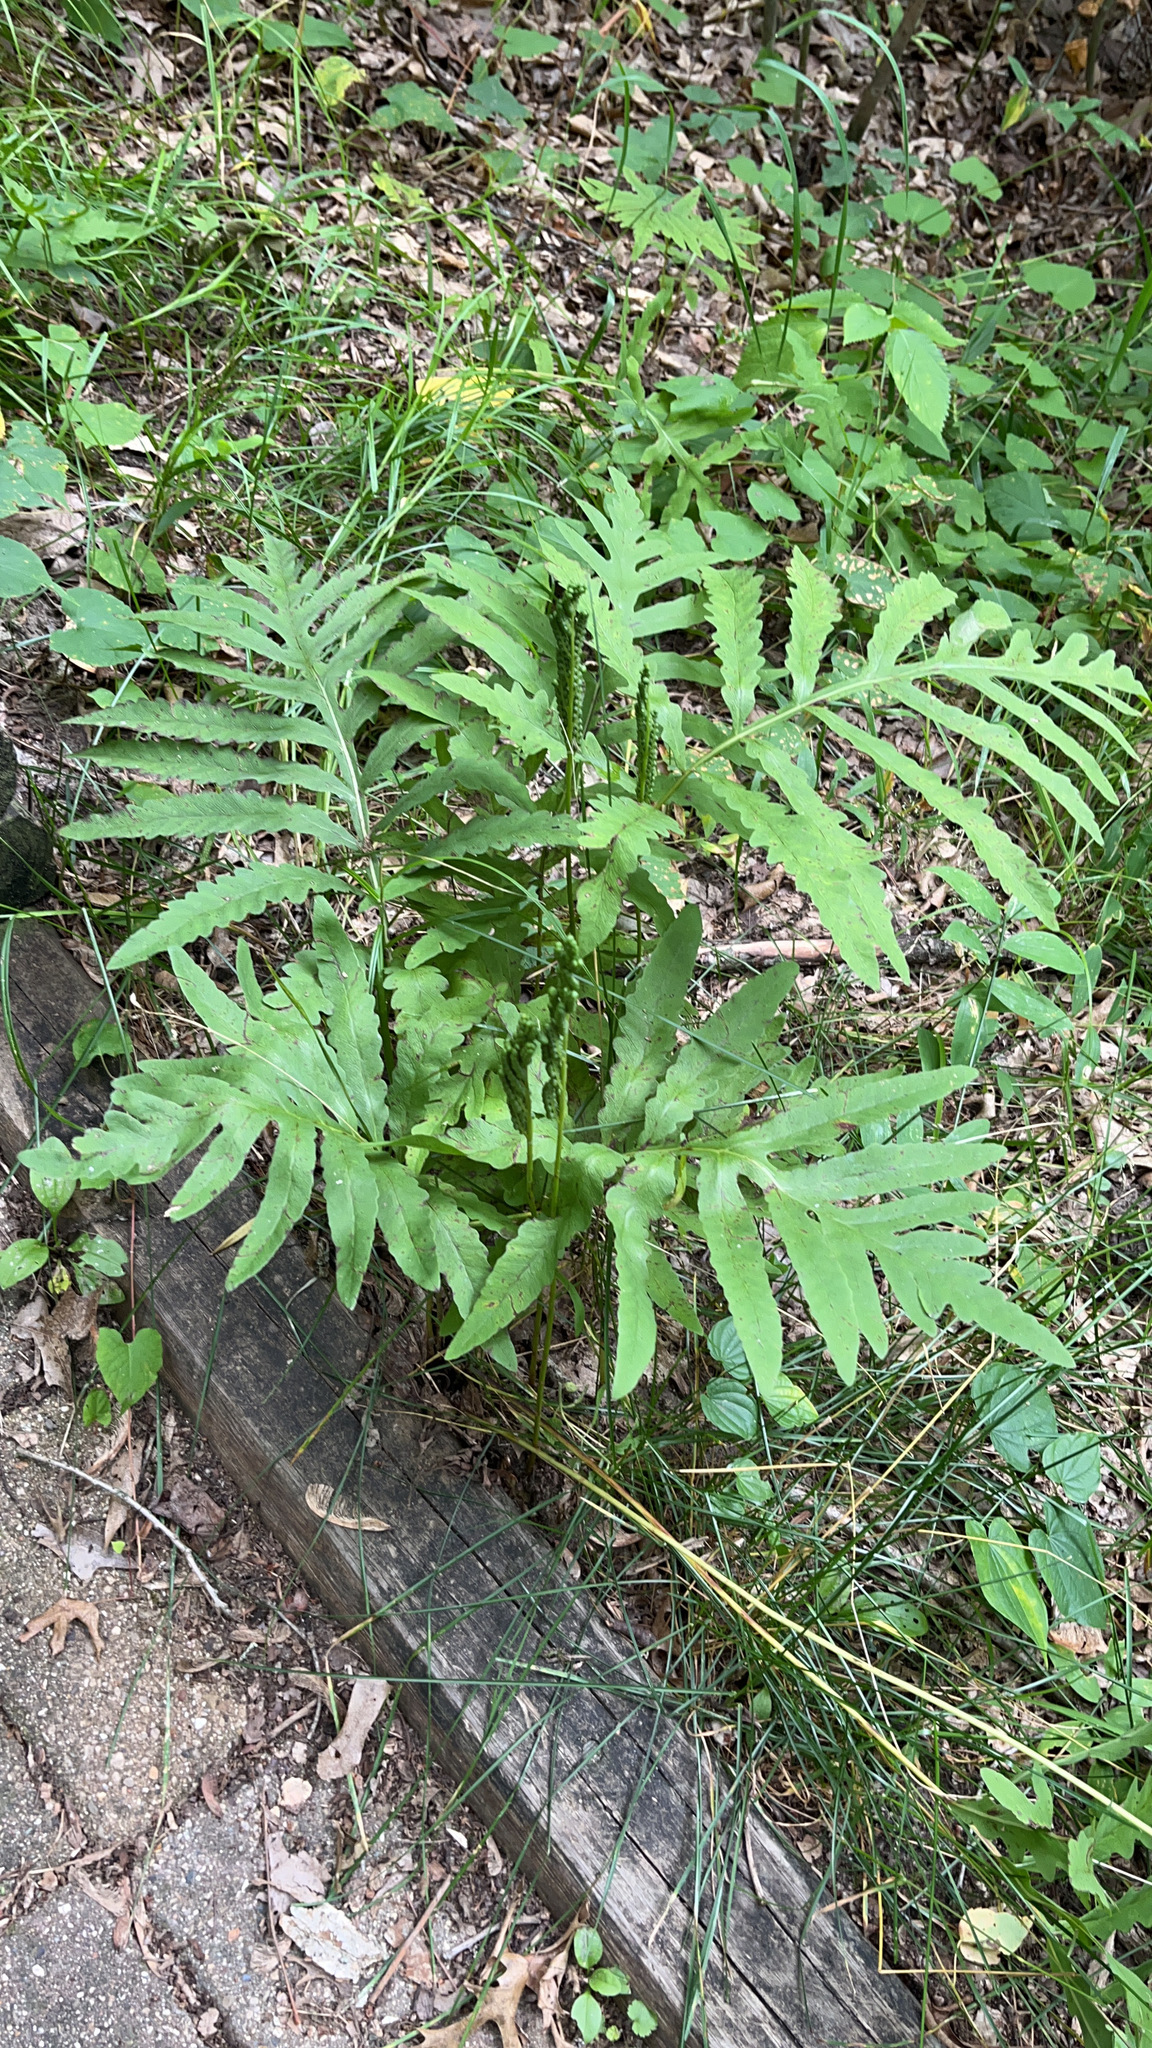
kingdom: Plantae
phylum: Tracheophyta
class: Polypodiopsida
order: Polypodiales
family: Onocleaceae
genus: Onoclea
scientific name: Onoclea sensibilis
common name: Sensitive fern
